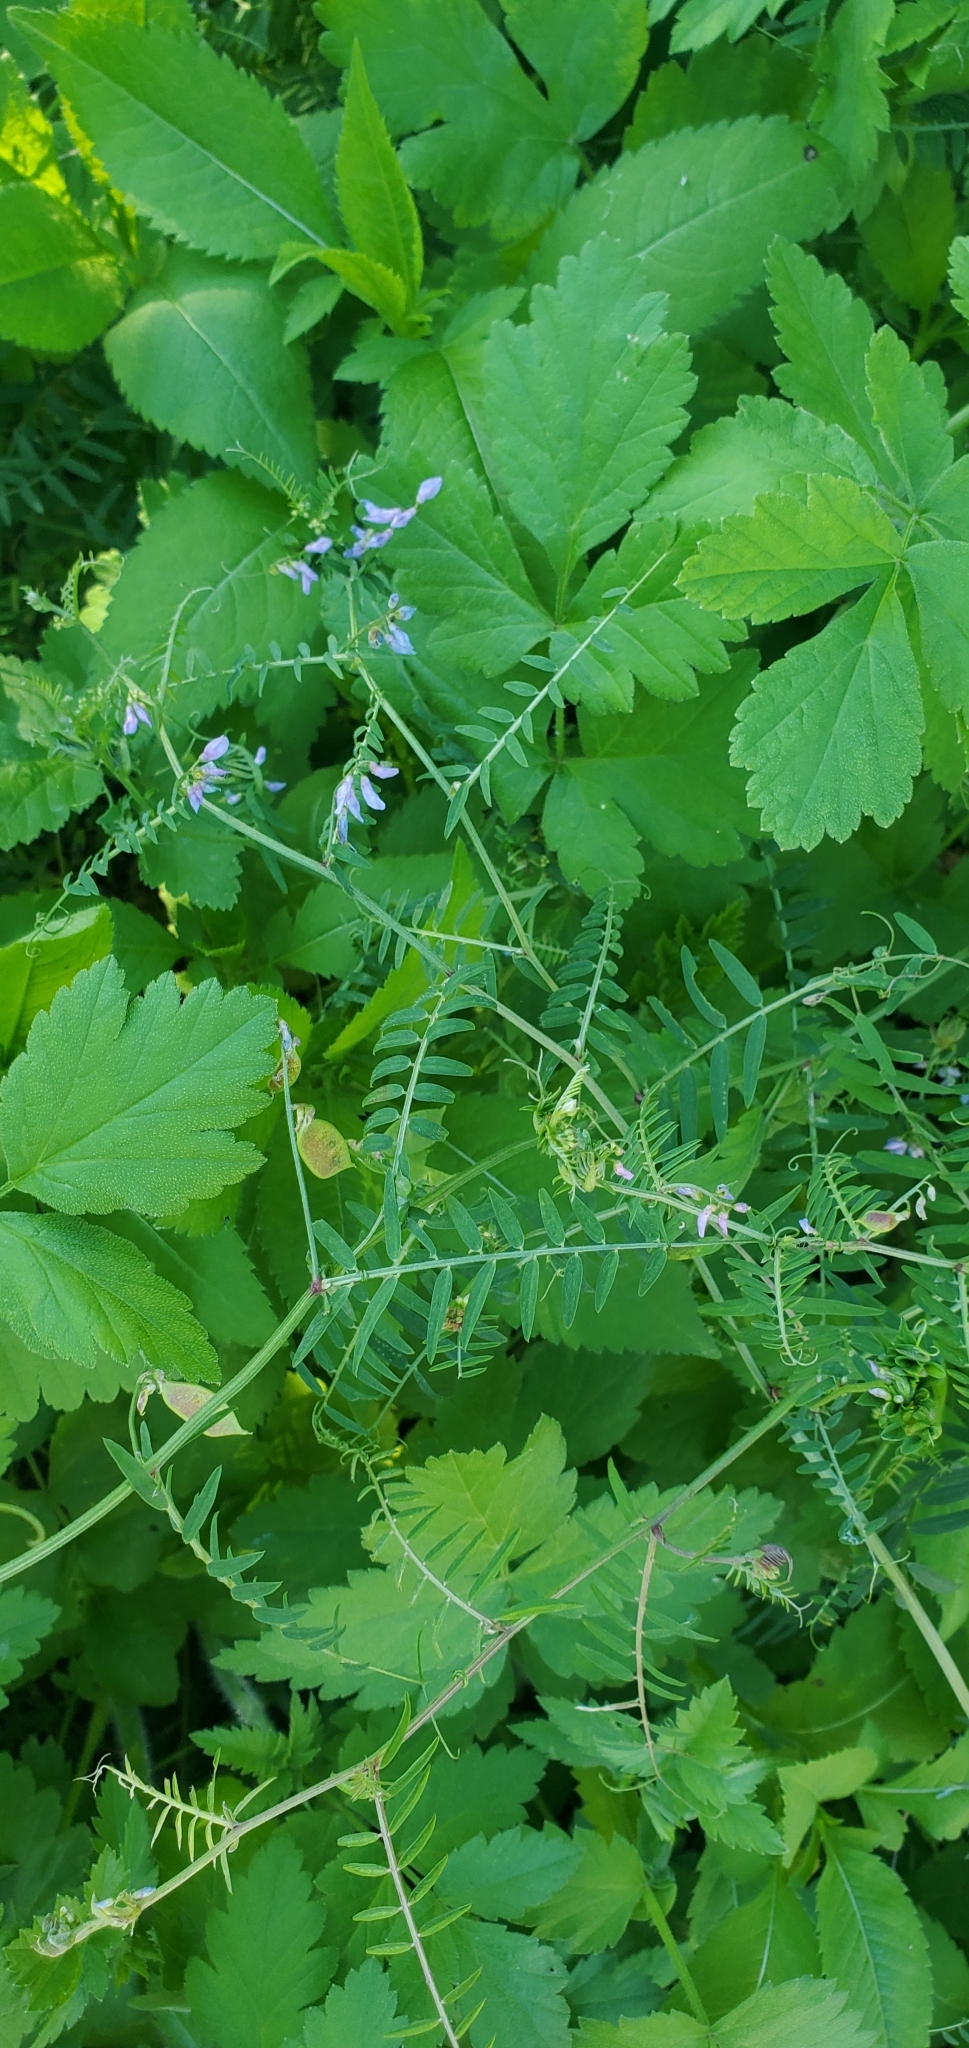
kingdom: Plantae
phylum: Tracheophyta
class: Magnoliopsida
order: Fabales
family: Fabaceae
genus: Vicia
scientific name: Vicia palaestina
